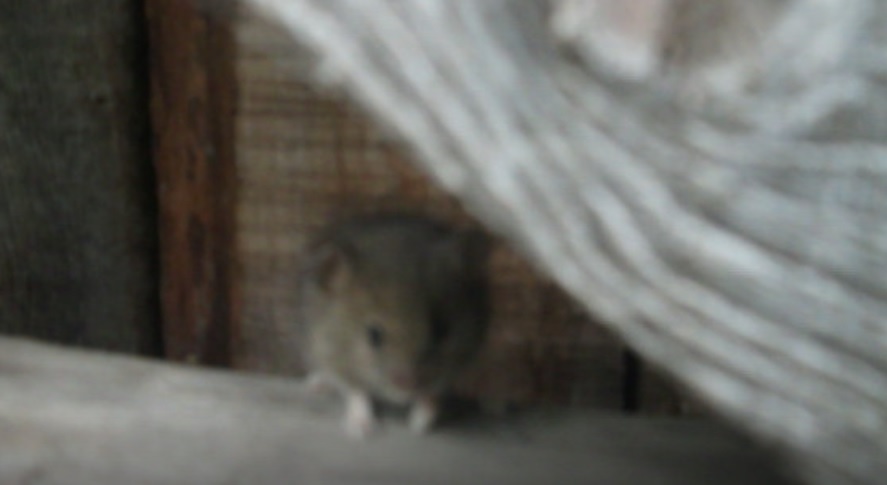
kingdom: Animalia
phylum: Chordata
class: Mammalia
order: Rodentia
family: Muridae
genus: Mus
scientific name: Mus musculus
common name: House mouse
